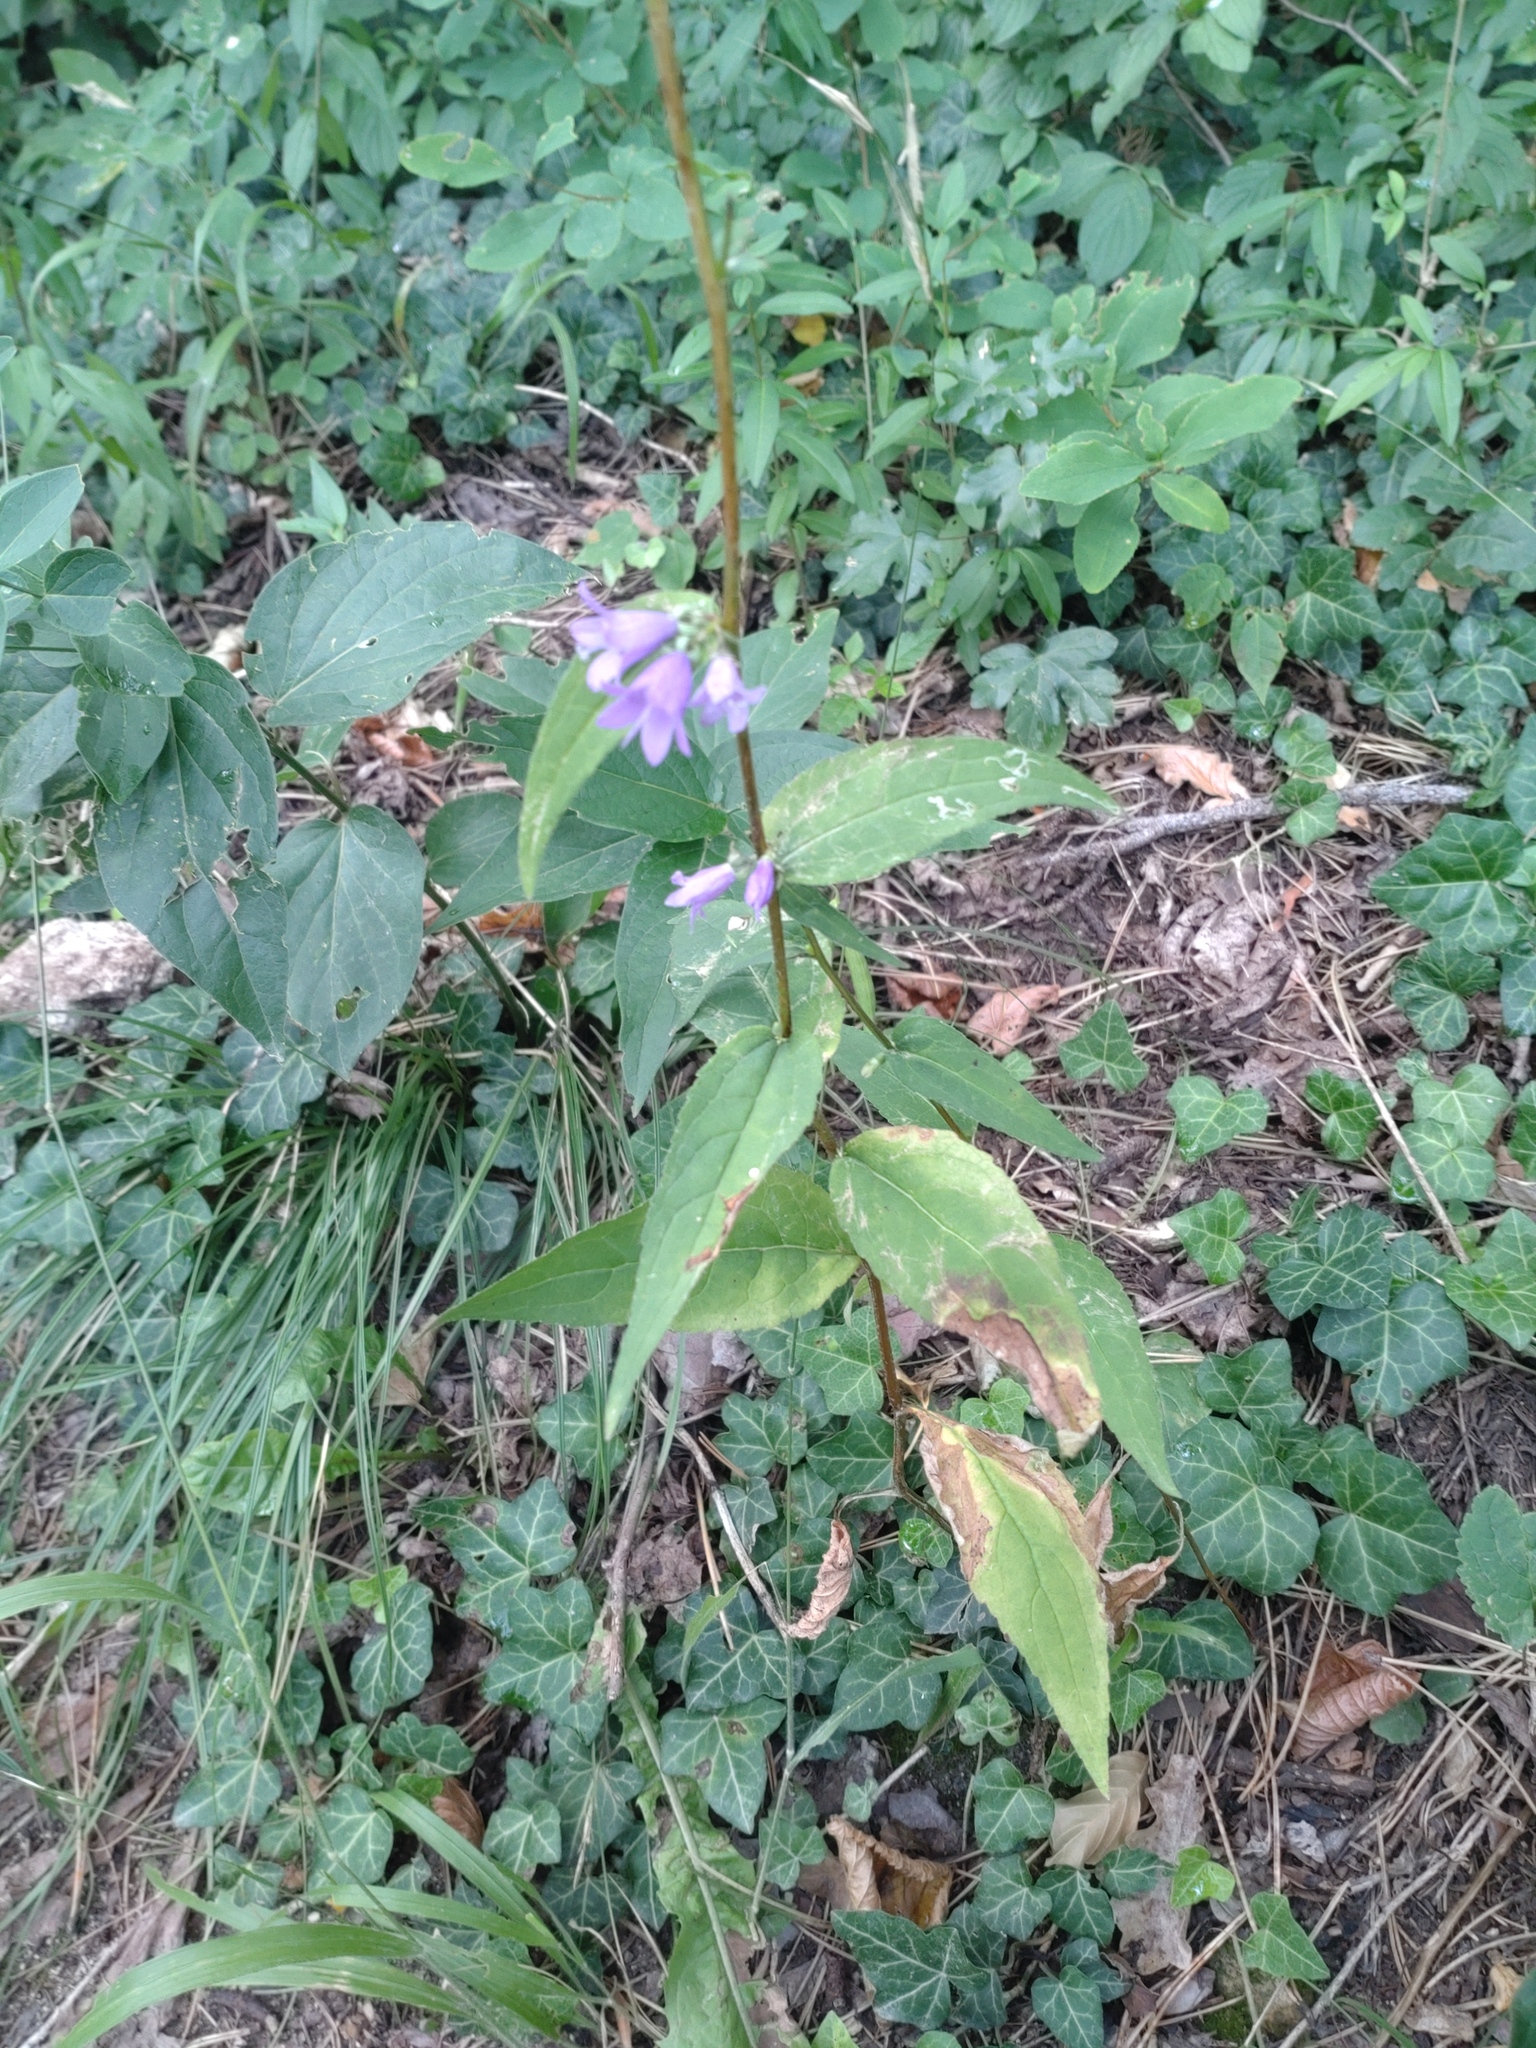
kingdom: Plantae
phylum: Tracheophyta
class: Magnoliopsida
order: Asterales
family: Campanulaceae
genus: Campanula
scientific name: Campanula trachelium
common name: Nettle-leaved bellflower
